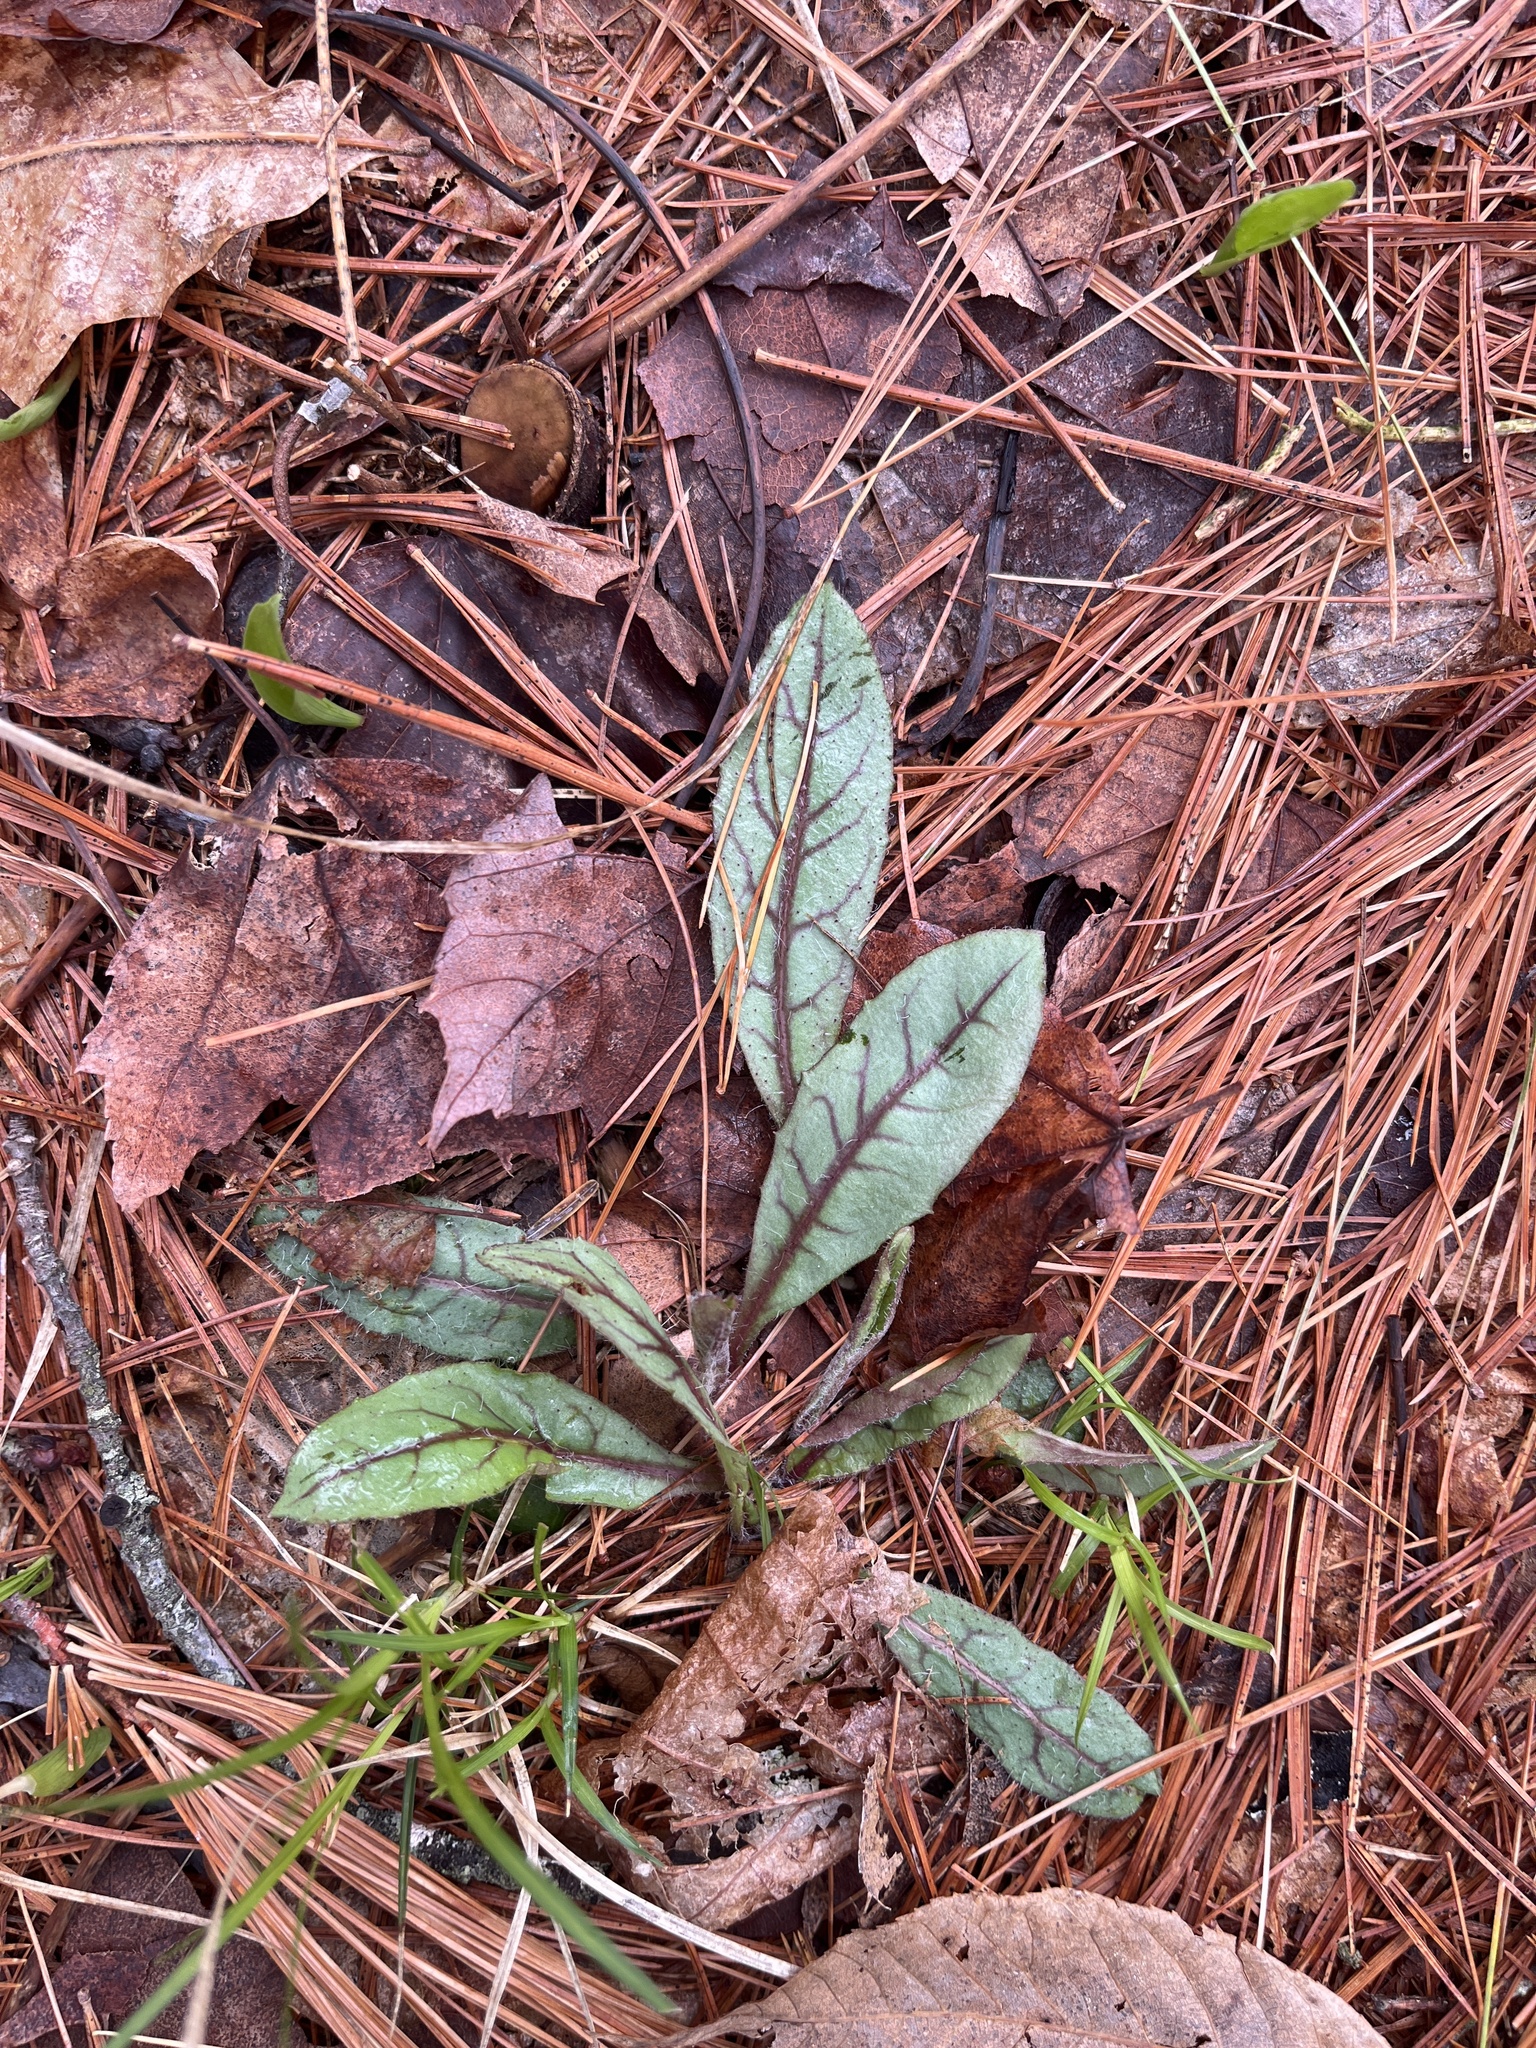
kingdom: Plantae
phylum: Tracheophyta
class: Magnoliopsida
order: Asterales
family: Asteraceae
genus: Hieracium
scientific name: Hieracium venosum
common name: Rattlesnake hawkweed
